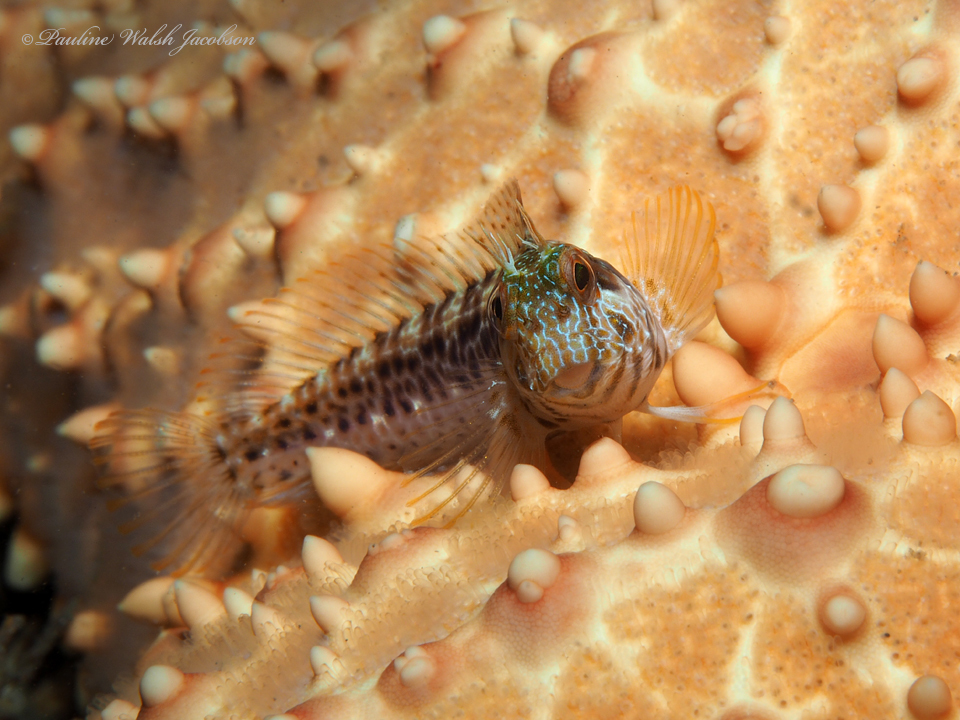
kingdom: Animalia
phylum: Chordata
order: Perciformes
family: Blenniidae
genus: Parablennius
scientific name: Parablennius marmoreus
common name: Seaweed blenny
